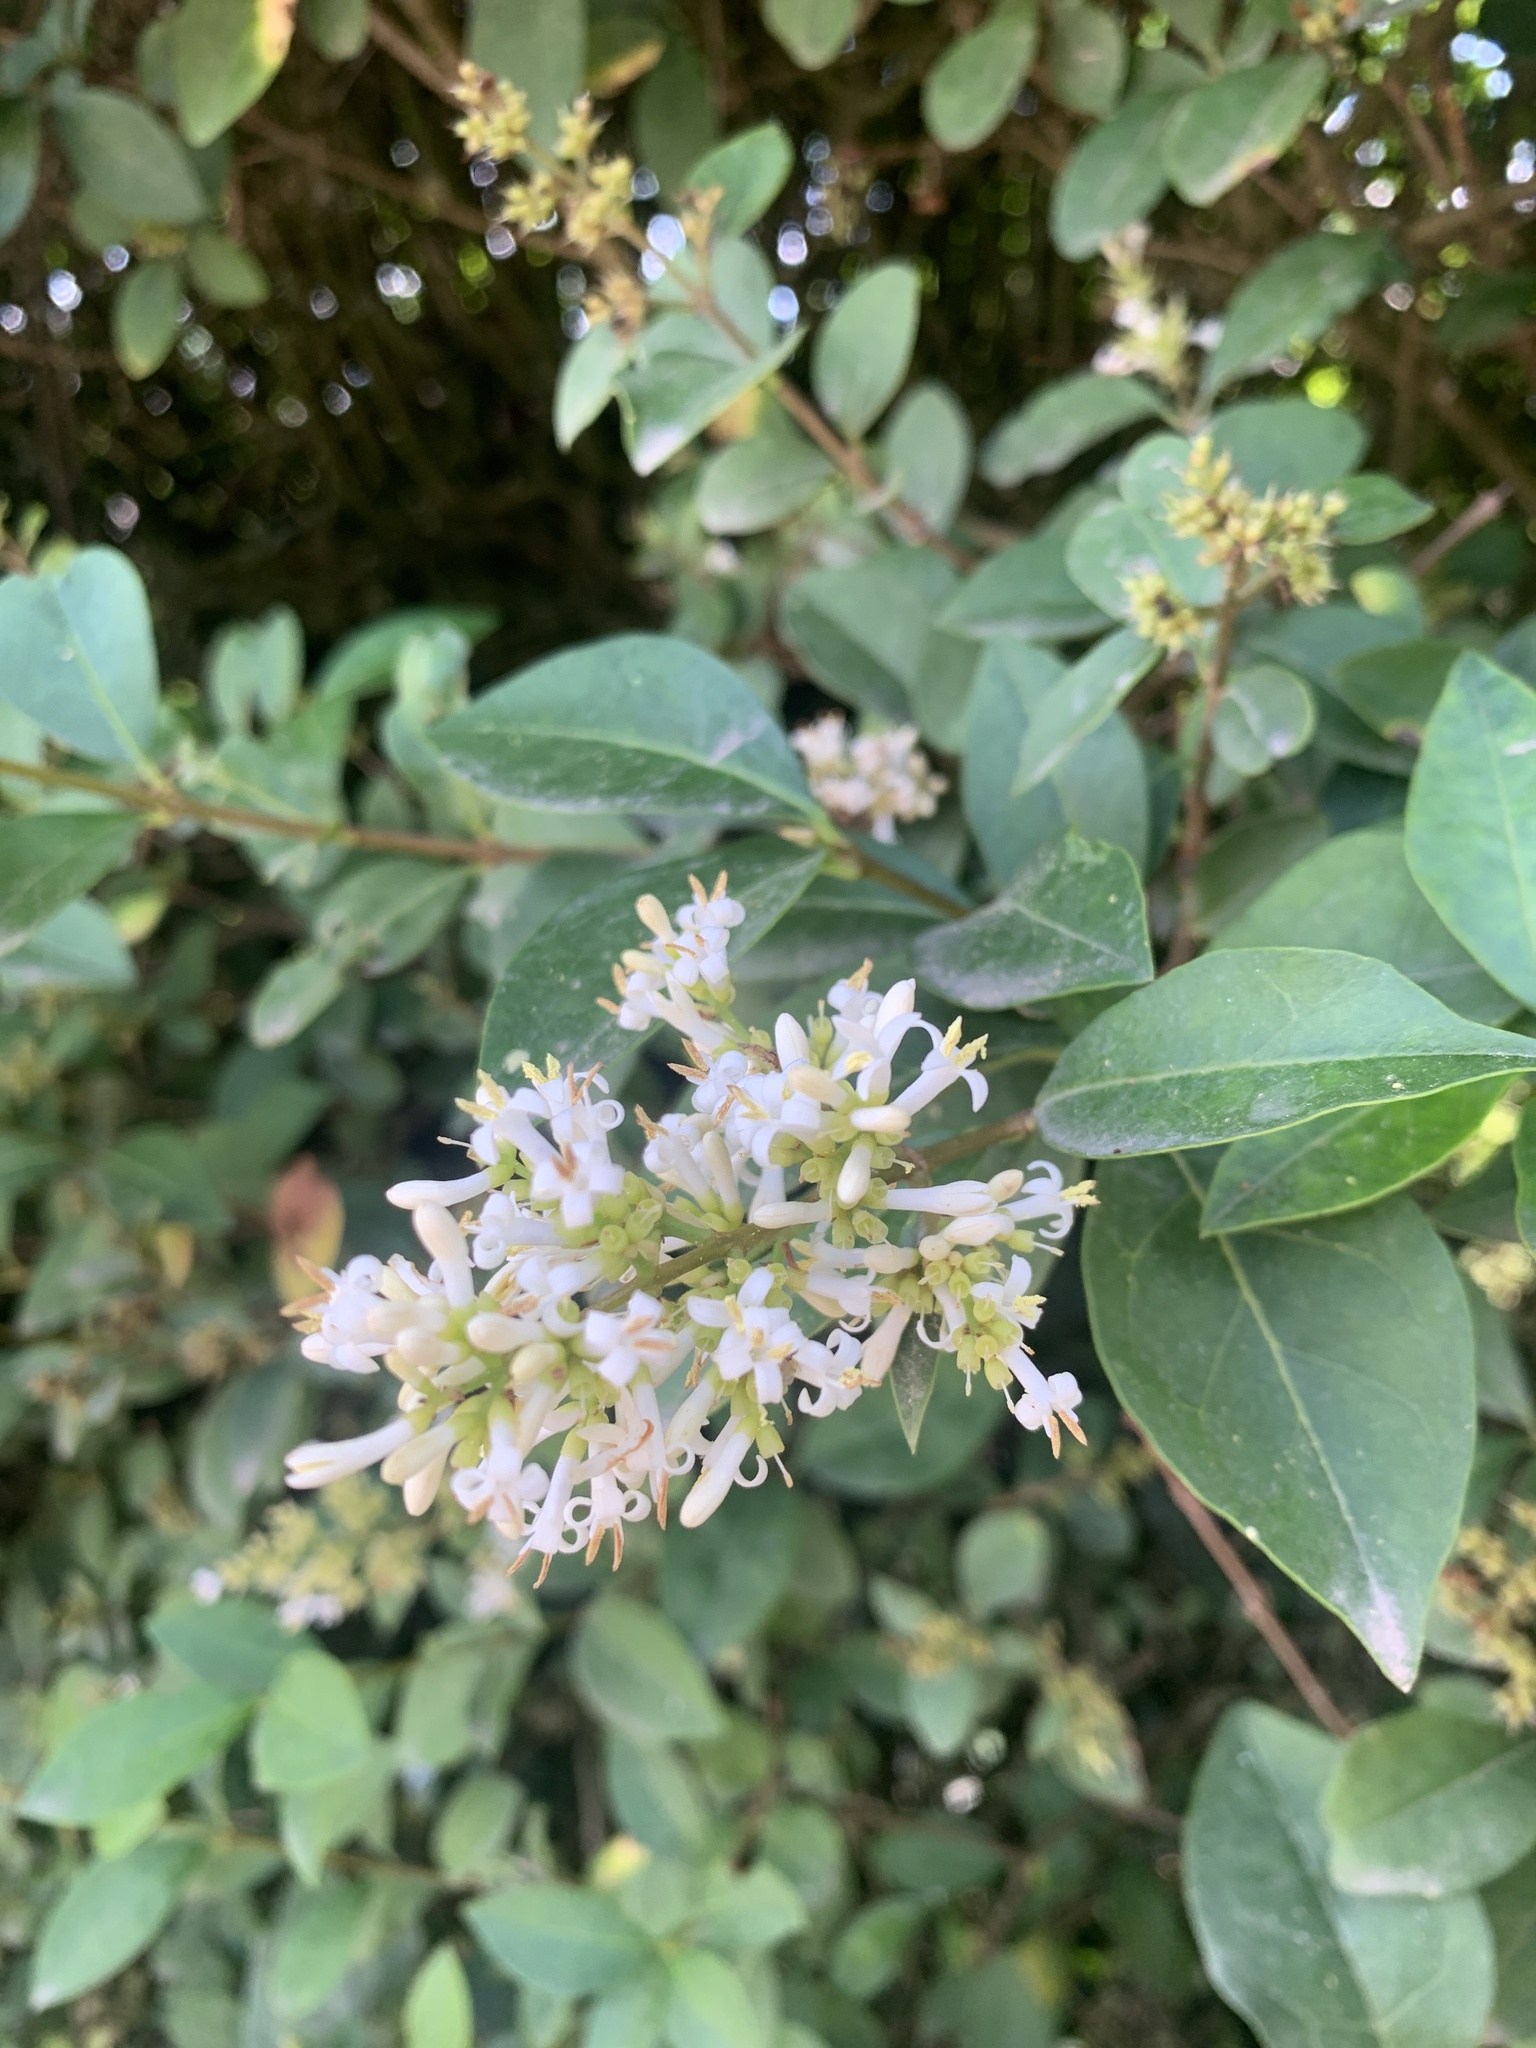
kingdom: Plantae
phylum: Tracheophyta
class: Magnoliopsida
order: Lamiales
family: Oleaceae
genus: Ligustrum
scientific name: Ligustrum ovalifolium
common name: California privet
